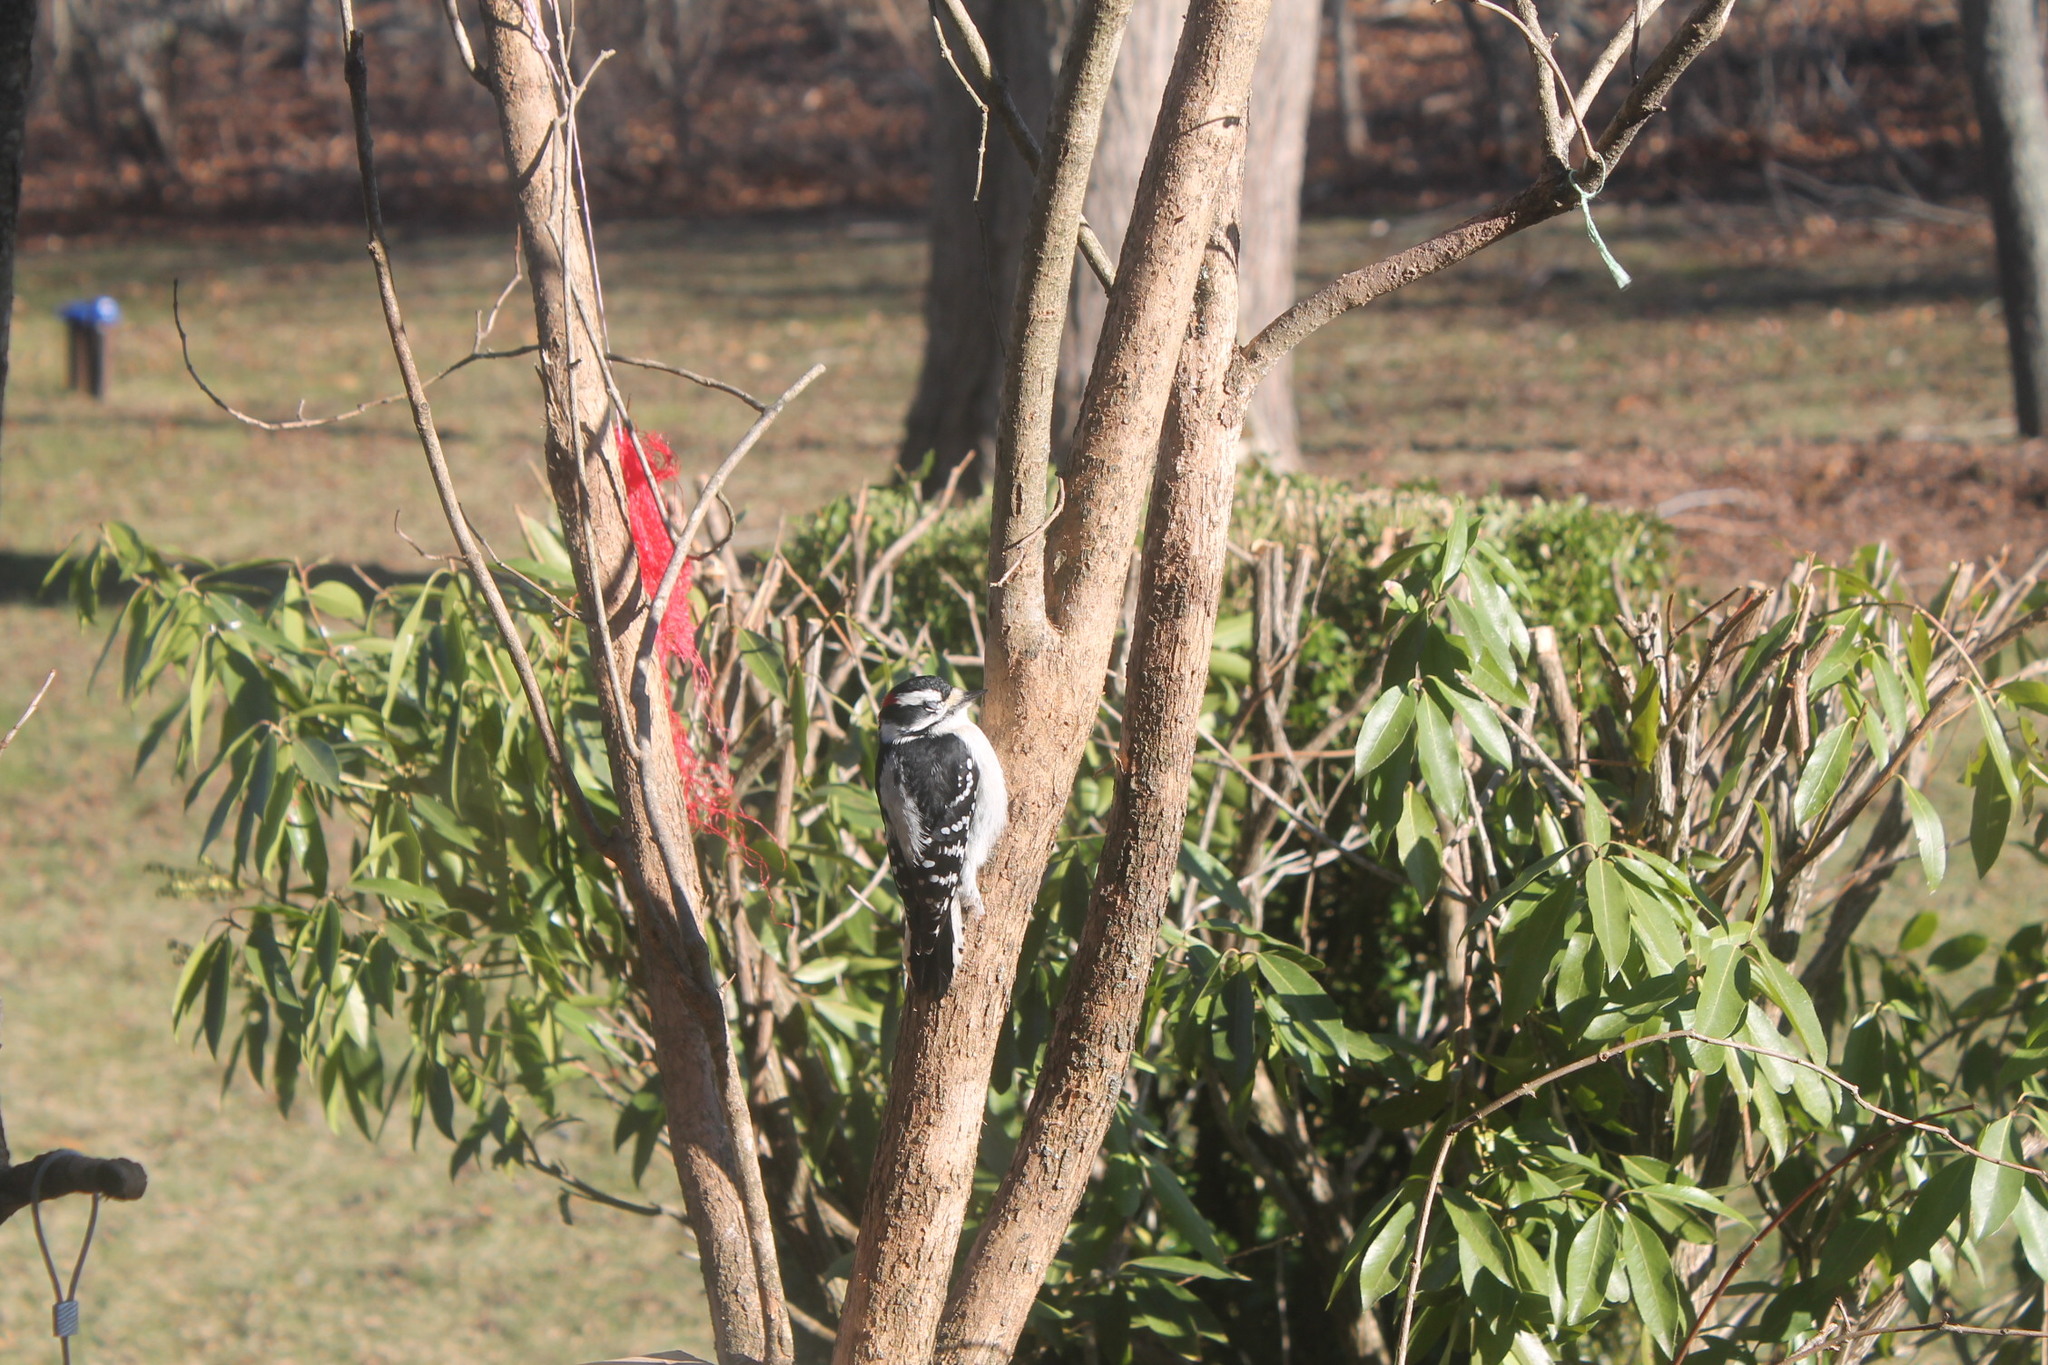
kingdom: Animalia
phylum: Chordata
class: Aves
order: Piciformes
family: Picidae
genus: Dryobates
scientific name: Dryobates pubescens
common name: Downy woodpecker
